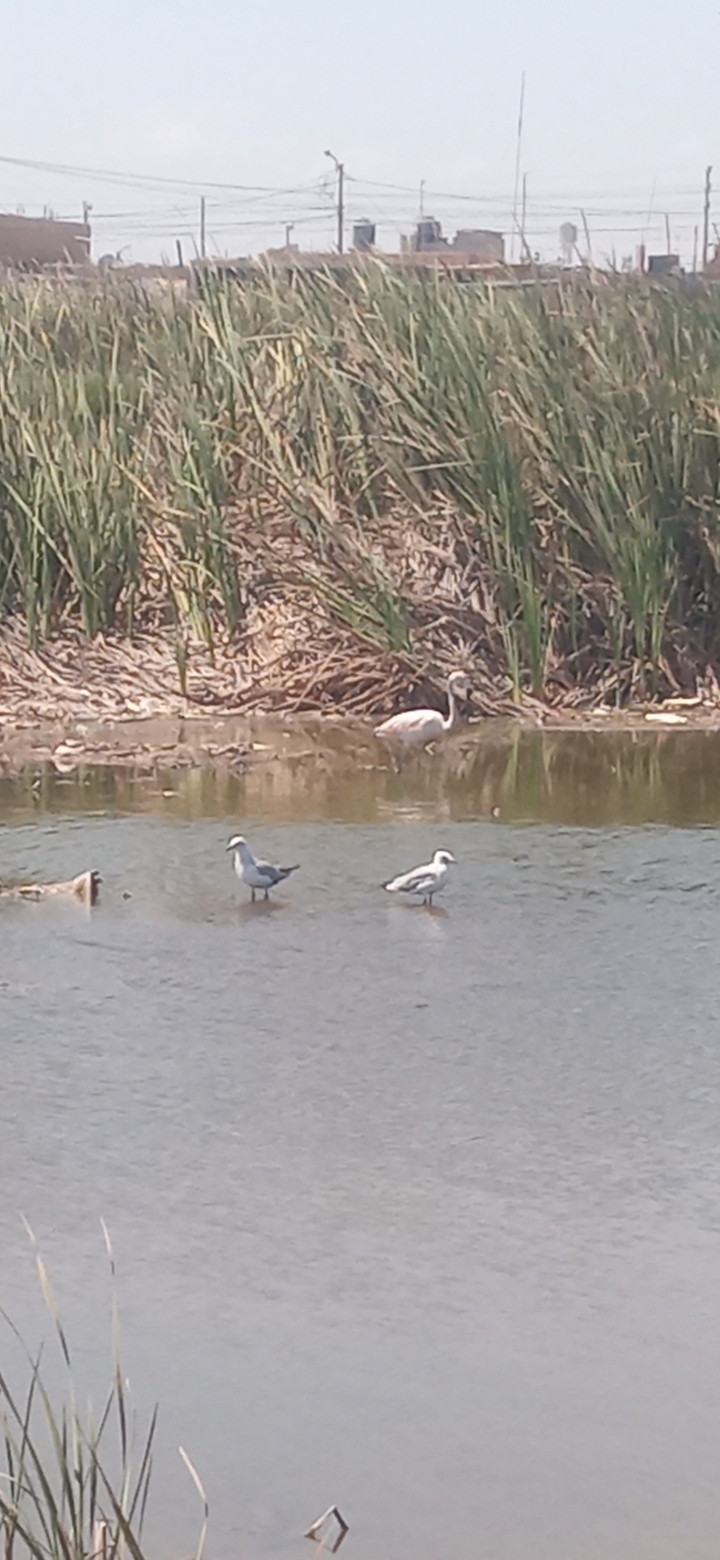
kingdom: Animalia
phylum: Chordata
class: Aves
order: Phoenicopteriformes
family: Phoenicopteridae
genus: Phoenicopterus
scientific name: Phoenicopterus chilensis
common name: Chilean flamingo
